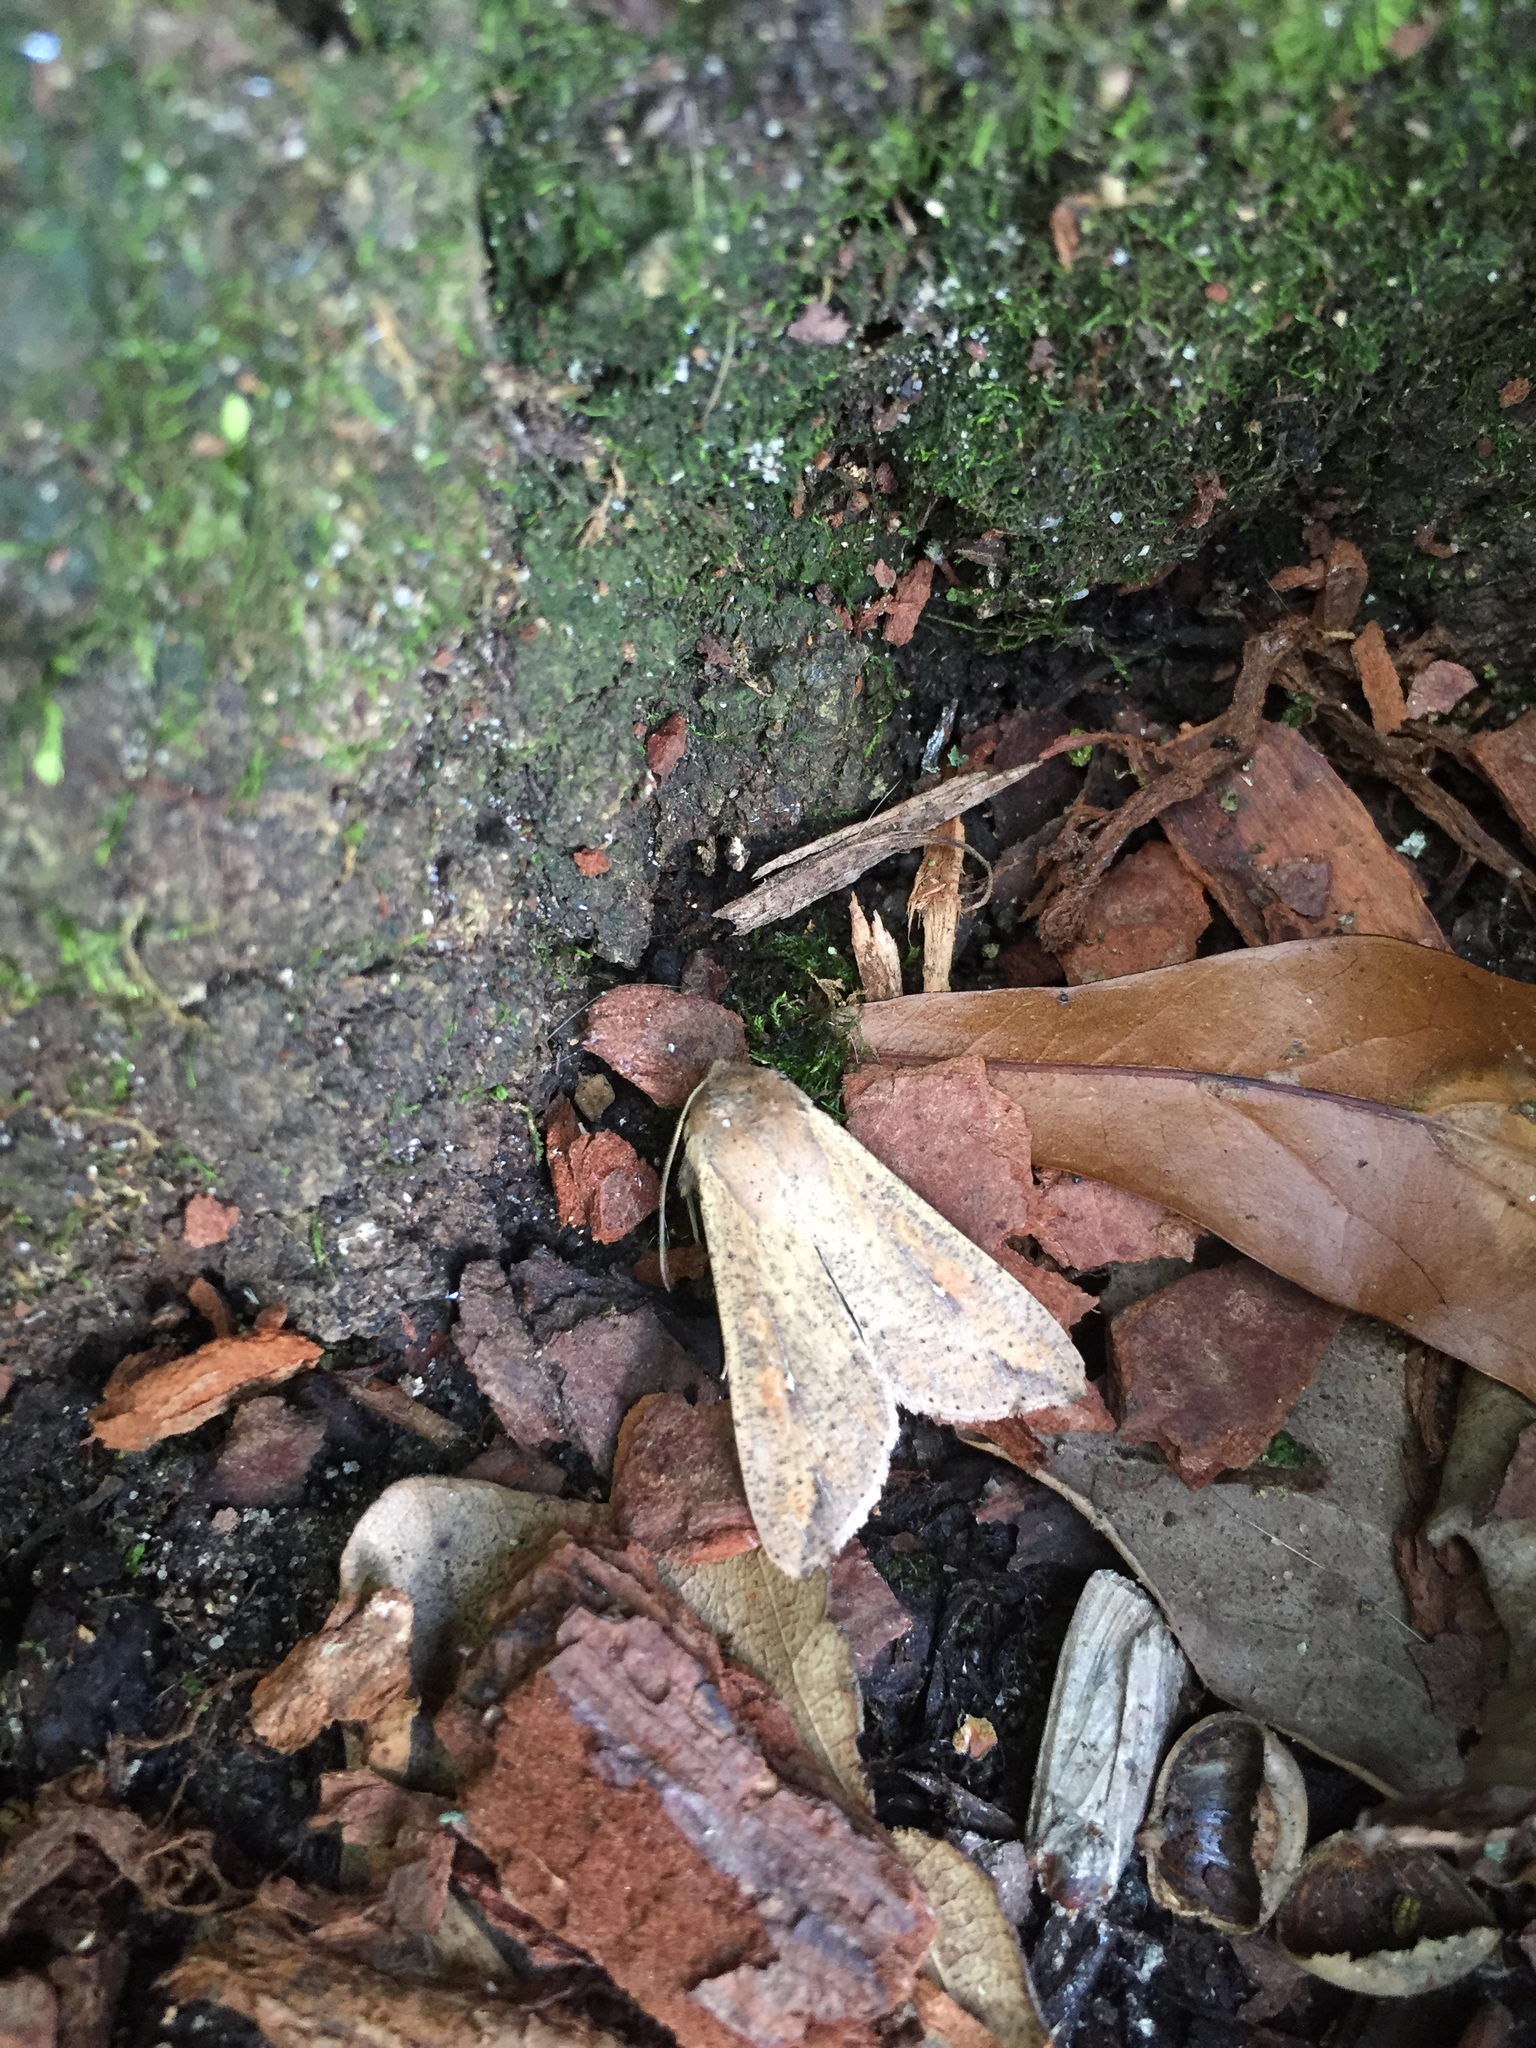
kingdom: Animalia
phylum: Arthropoda
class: Insecta
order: Lepidoptera
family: Noctuidae
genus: Mythimna
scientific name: Mythimna unipuncta
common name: White-speck
